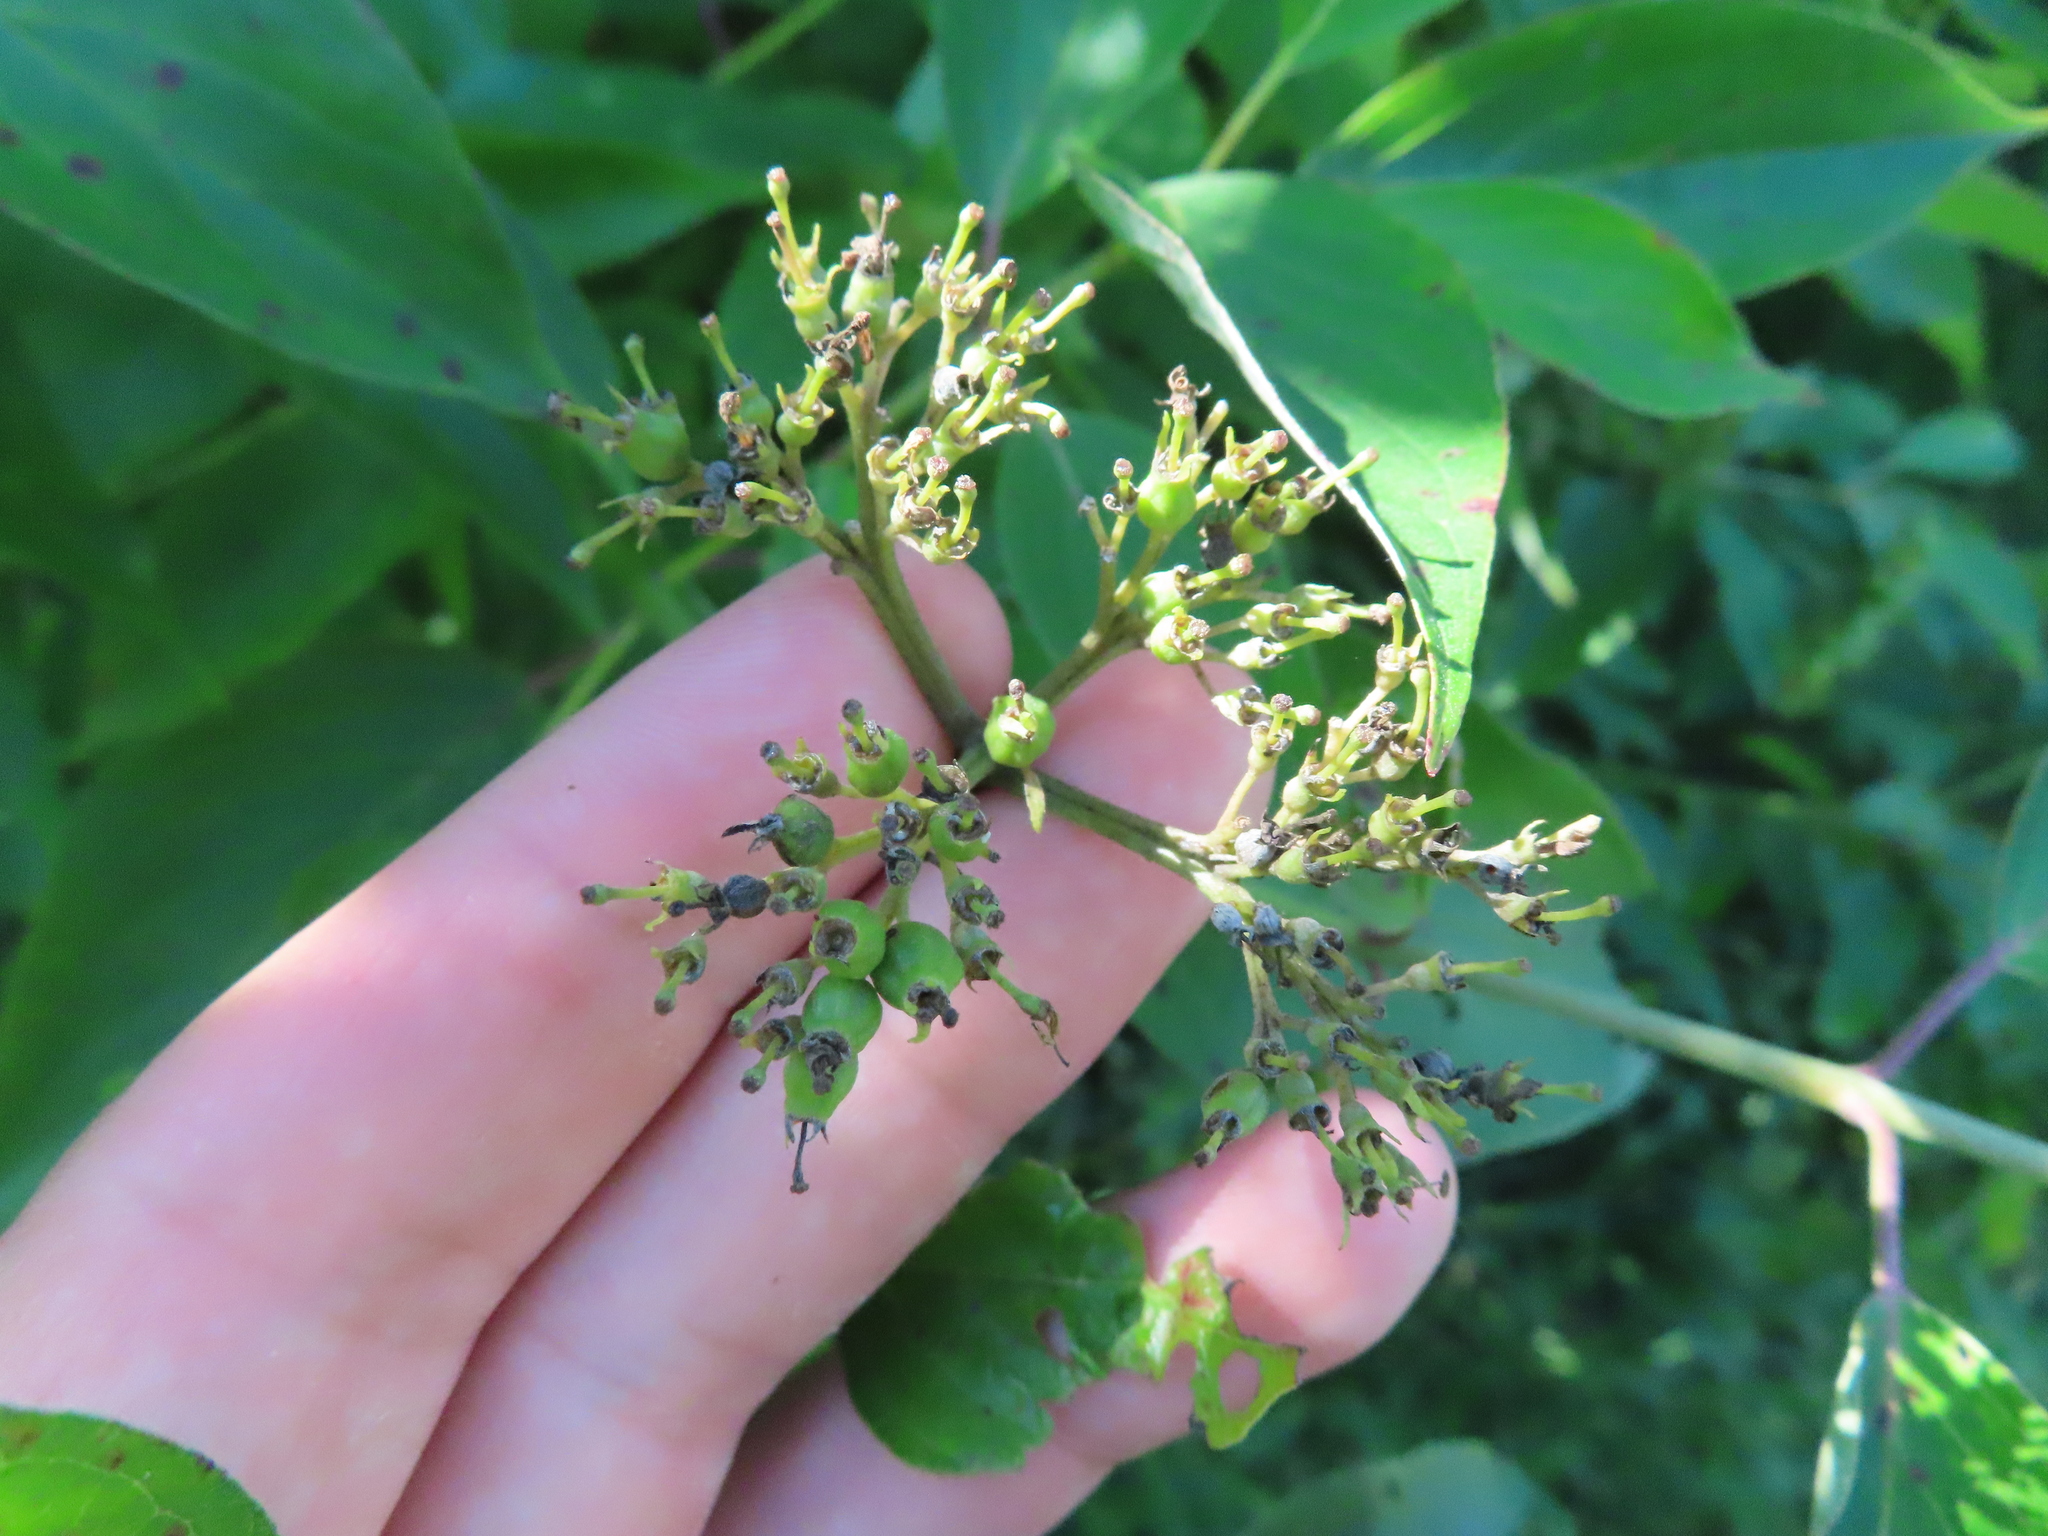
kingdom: Plantae
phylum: Tracheophyta
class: Magnoliopsida
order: Cornales
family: Cornaceae
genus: Cornus
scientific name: Cornus amomum
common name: Silky dogwood
